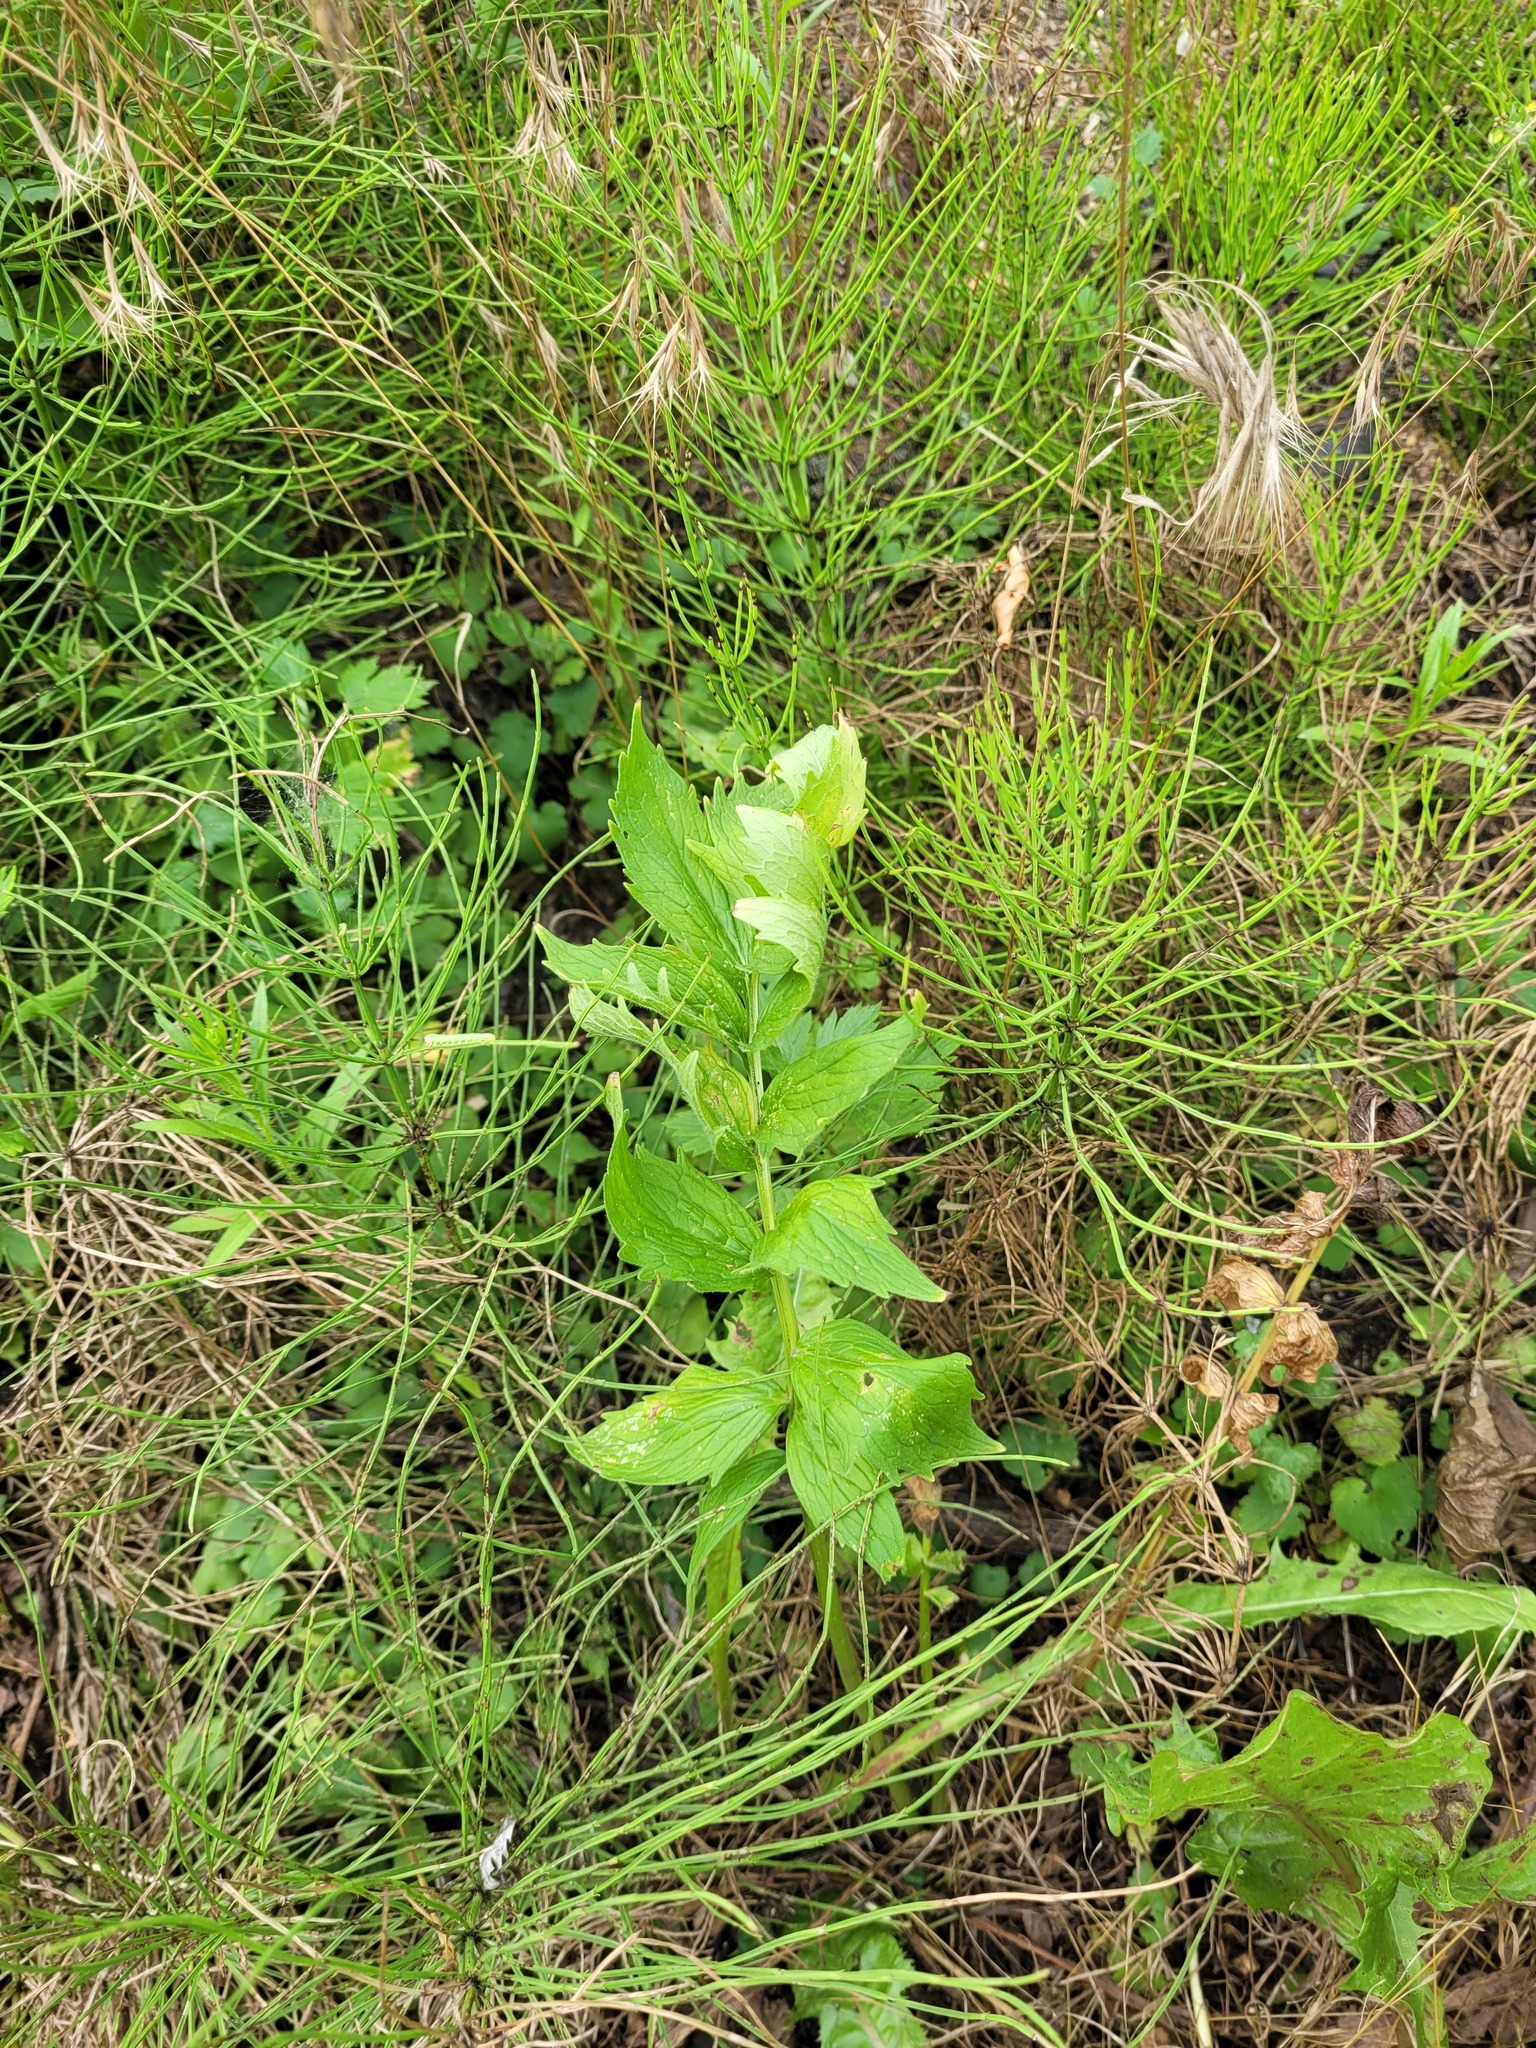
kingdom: Plantae
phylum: Tracheophyta
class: Magnoliopsida
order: Dipsacales
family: Caprifoliaceae
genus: Valeriana
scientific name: Valeriana officinalis
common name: Common valerian
